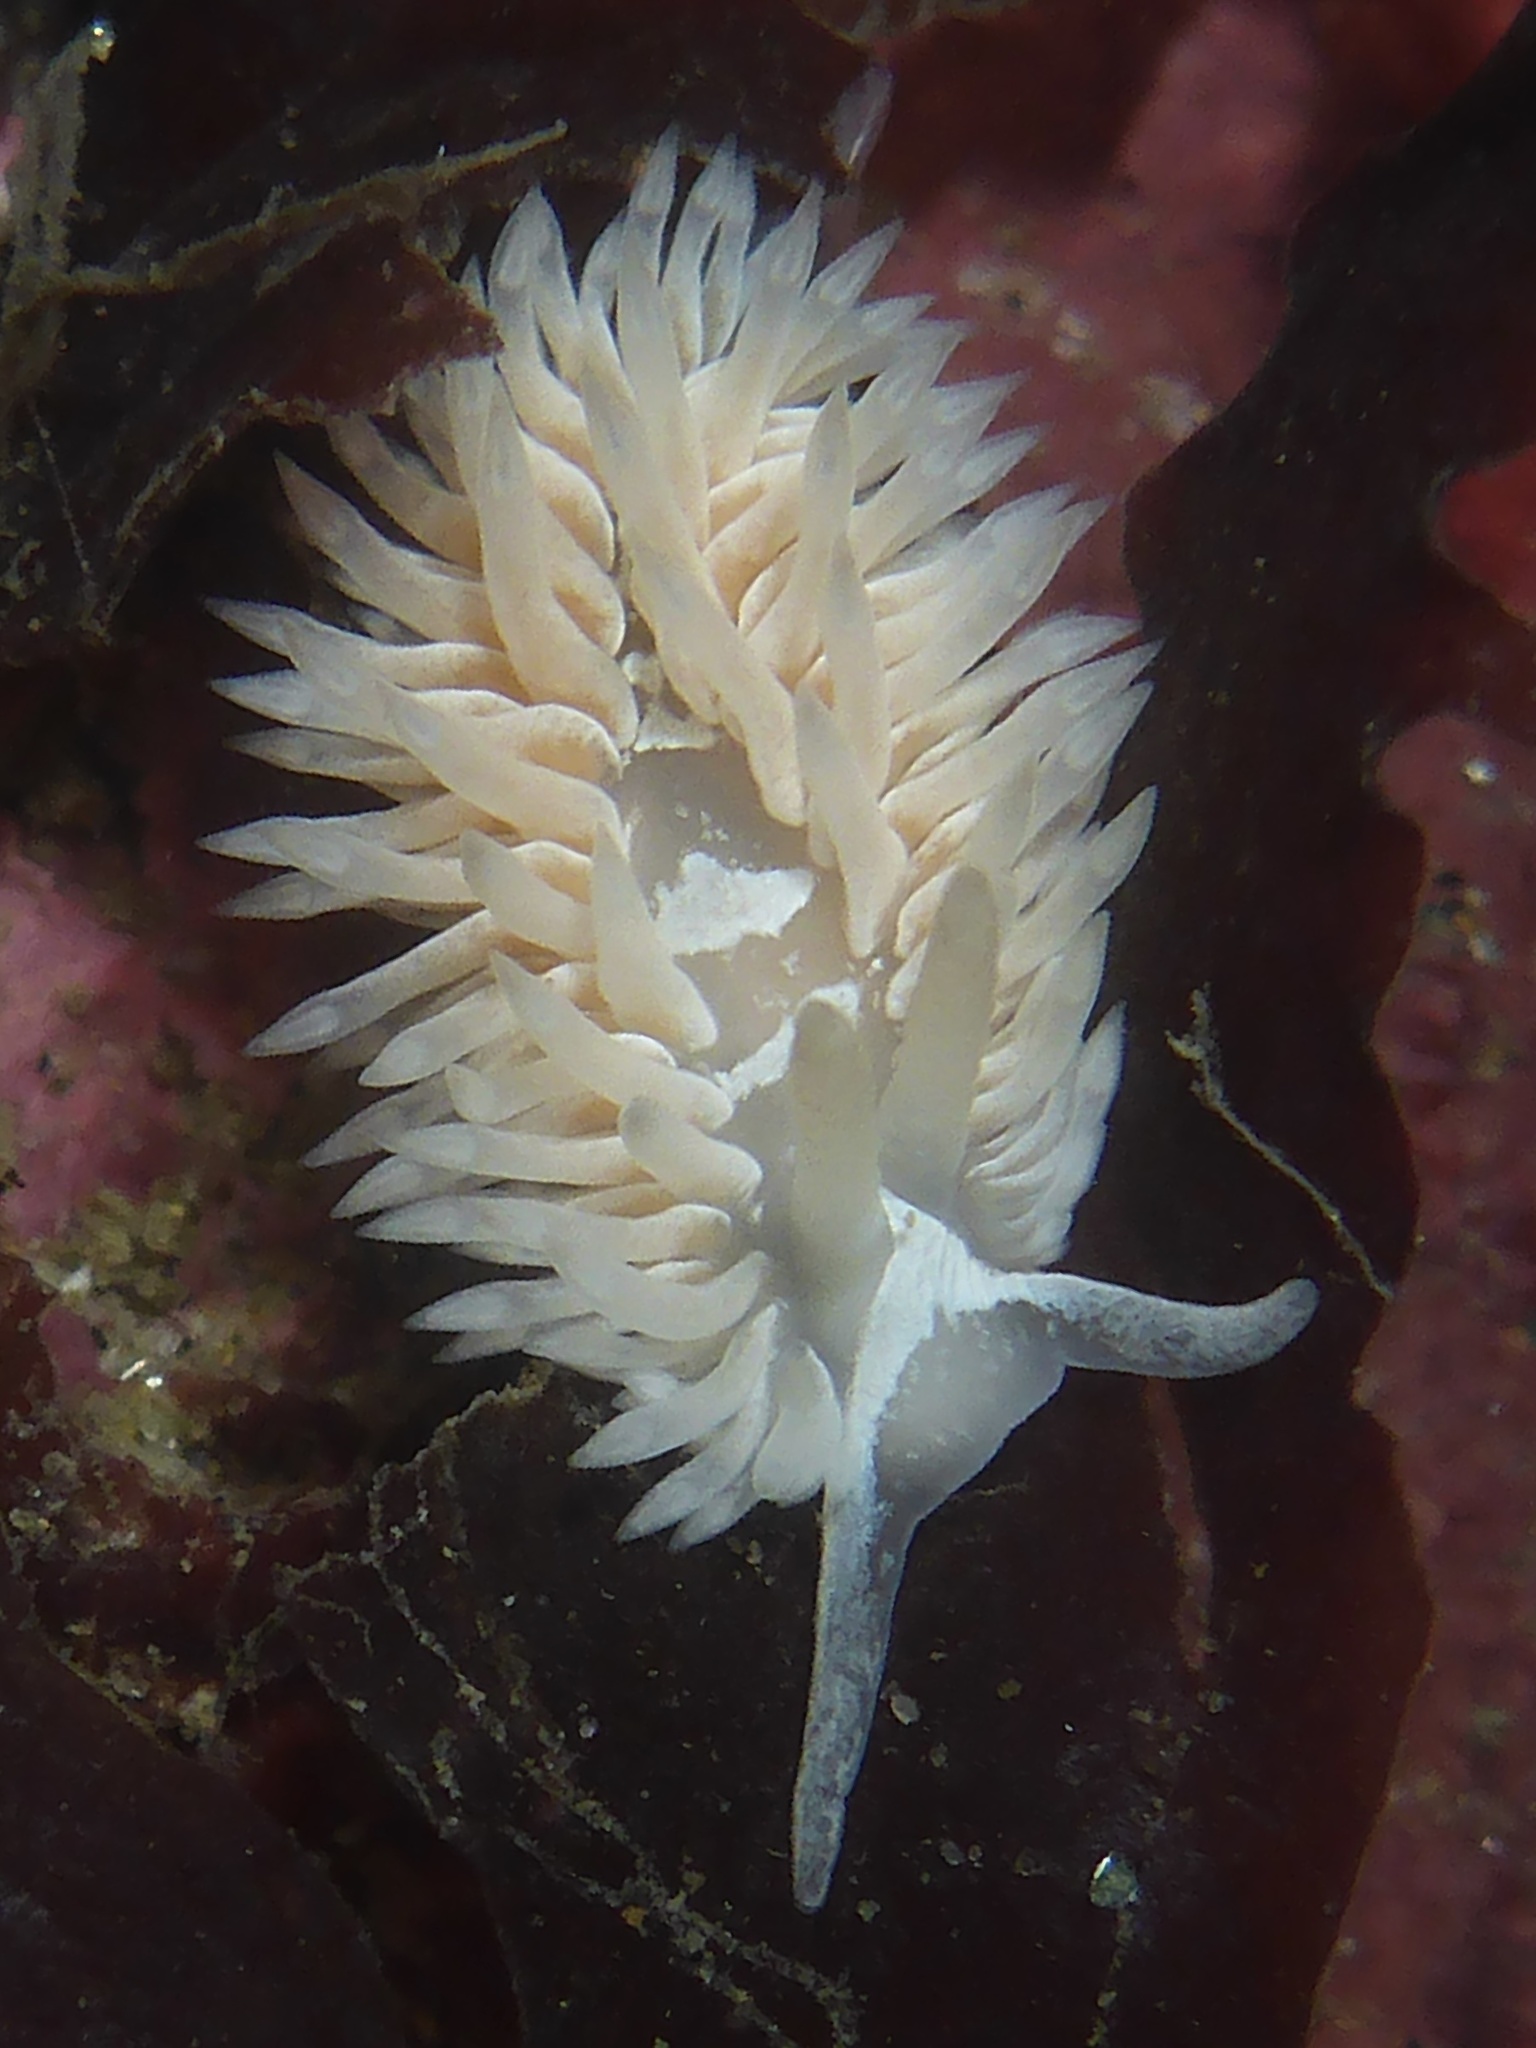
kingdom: Animalia
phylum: Mollusca
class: Gastropoda
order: Nudibranchia
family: Aeolidiidae
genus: Aeolidia
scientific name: Aeolidia loui
